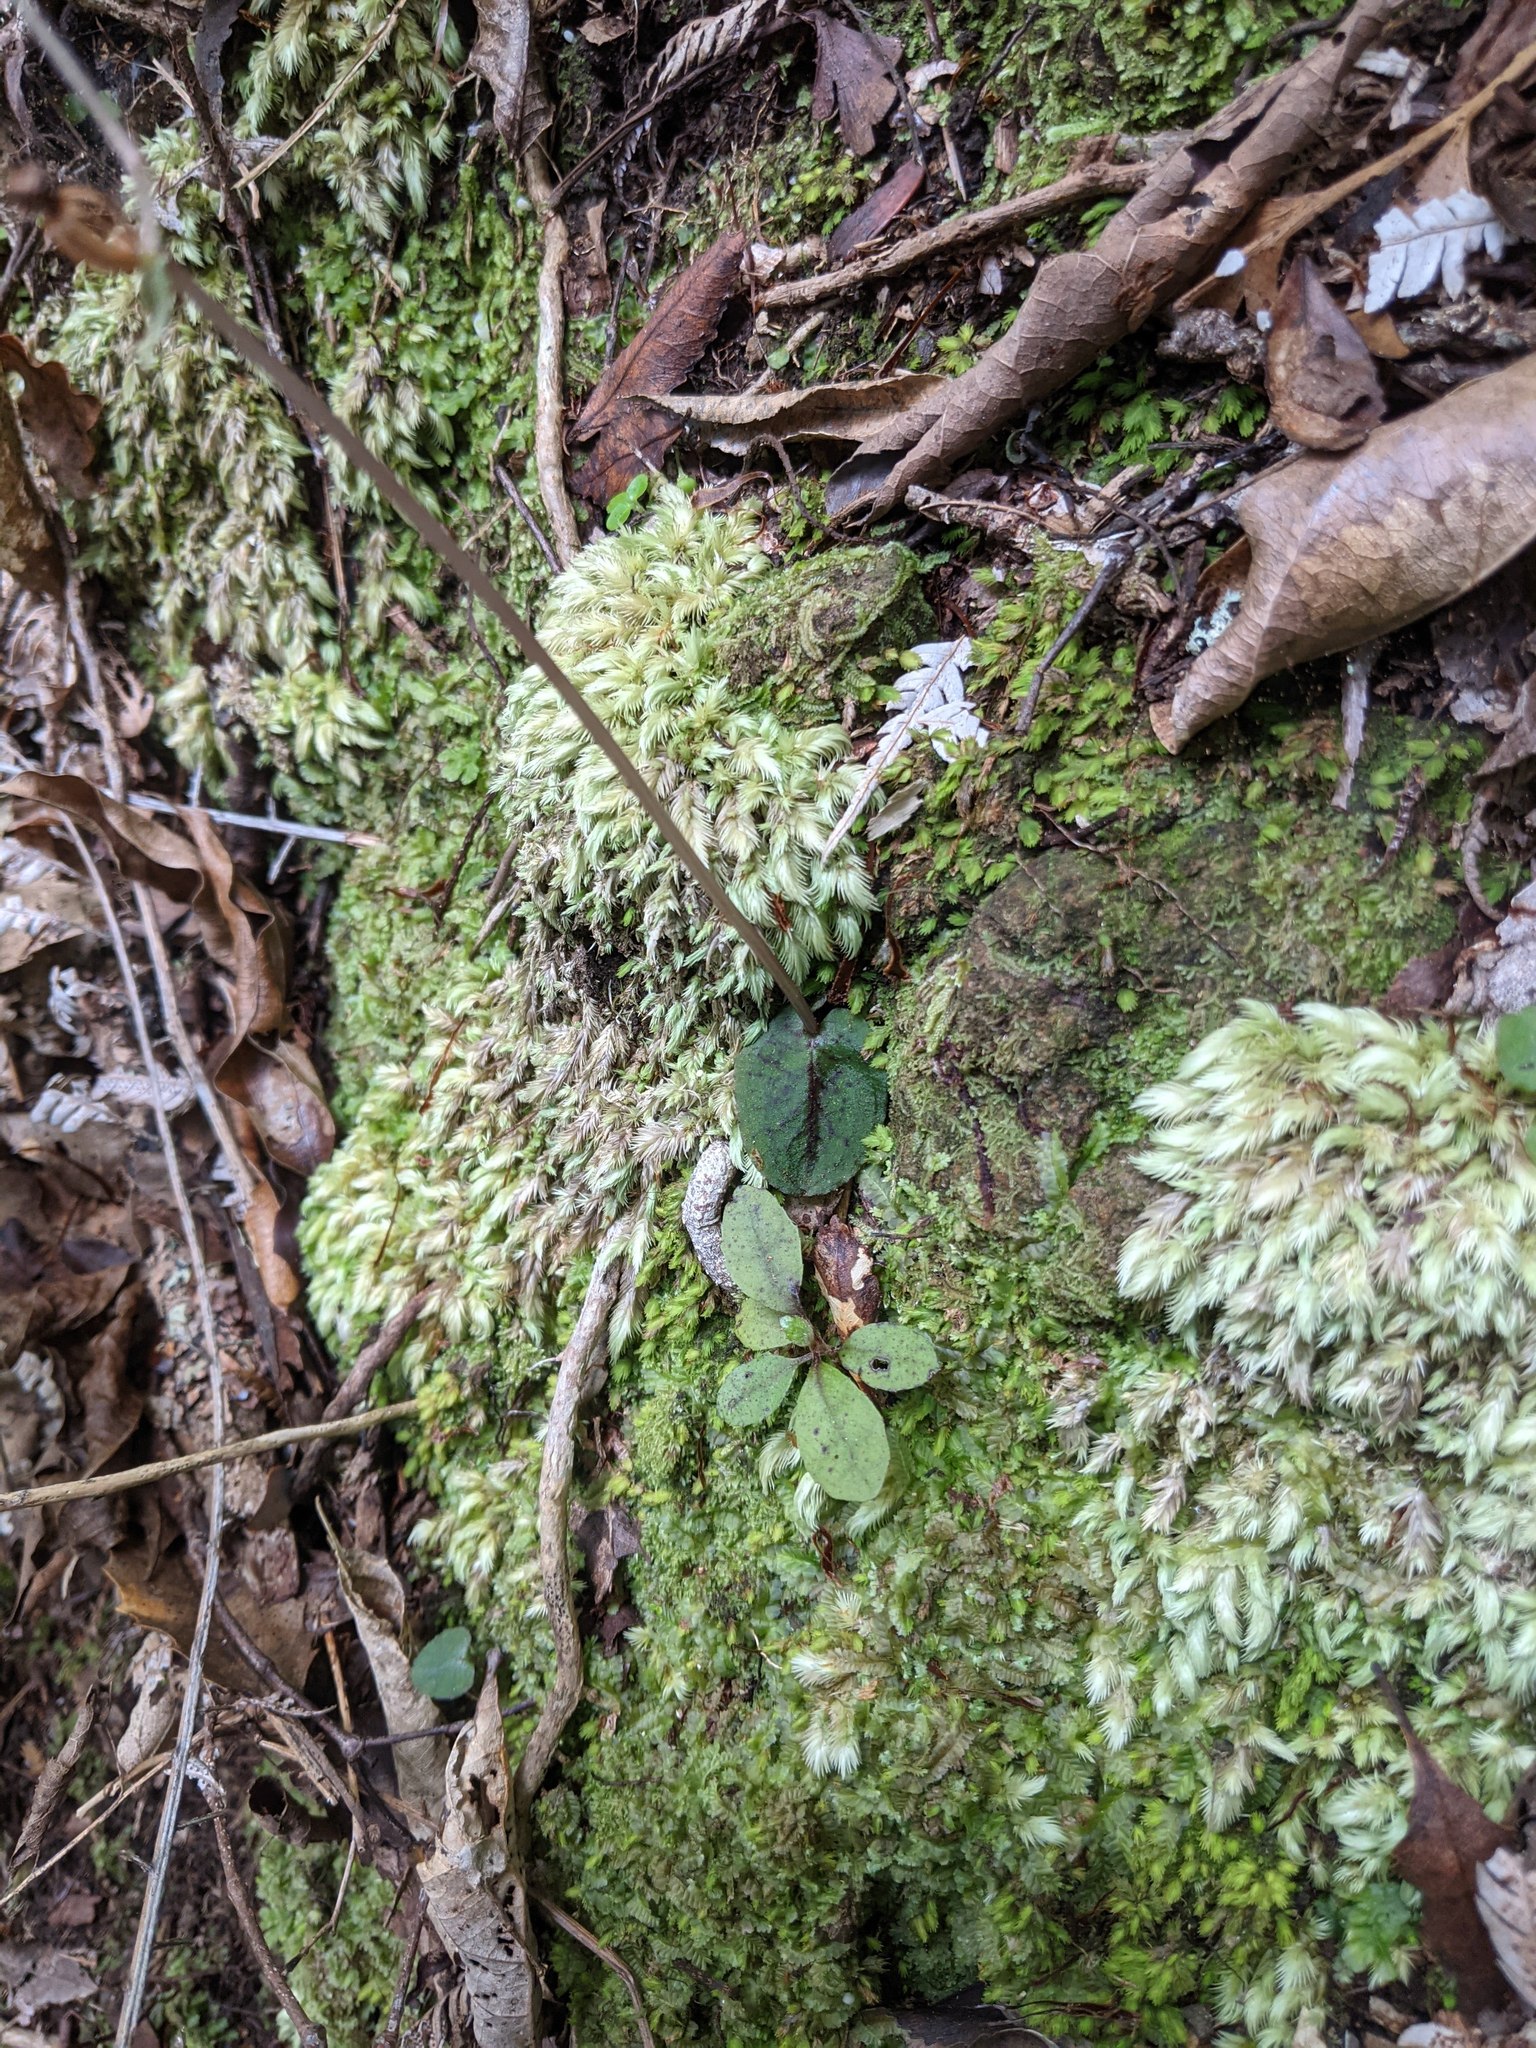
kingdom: Plantae
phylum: Tracheophyta
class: Liliopsida
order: Asparagales
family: Orchidaceae
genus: Corybas
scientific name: Corybas oblongus
